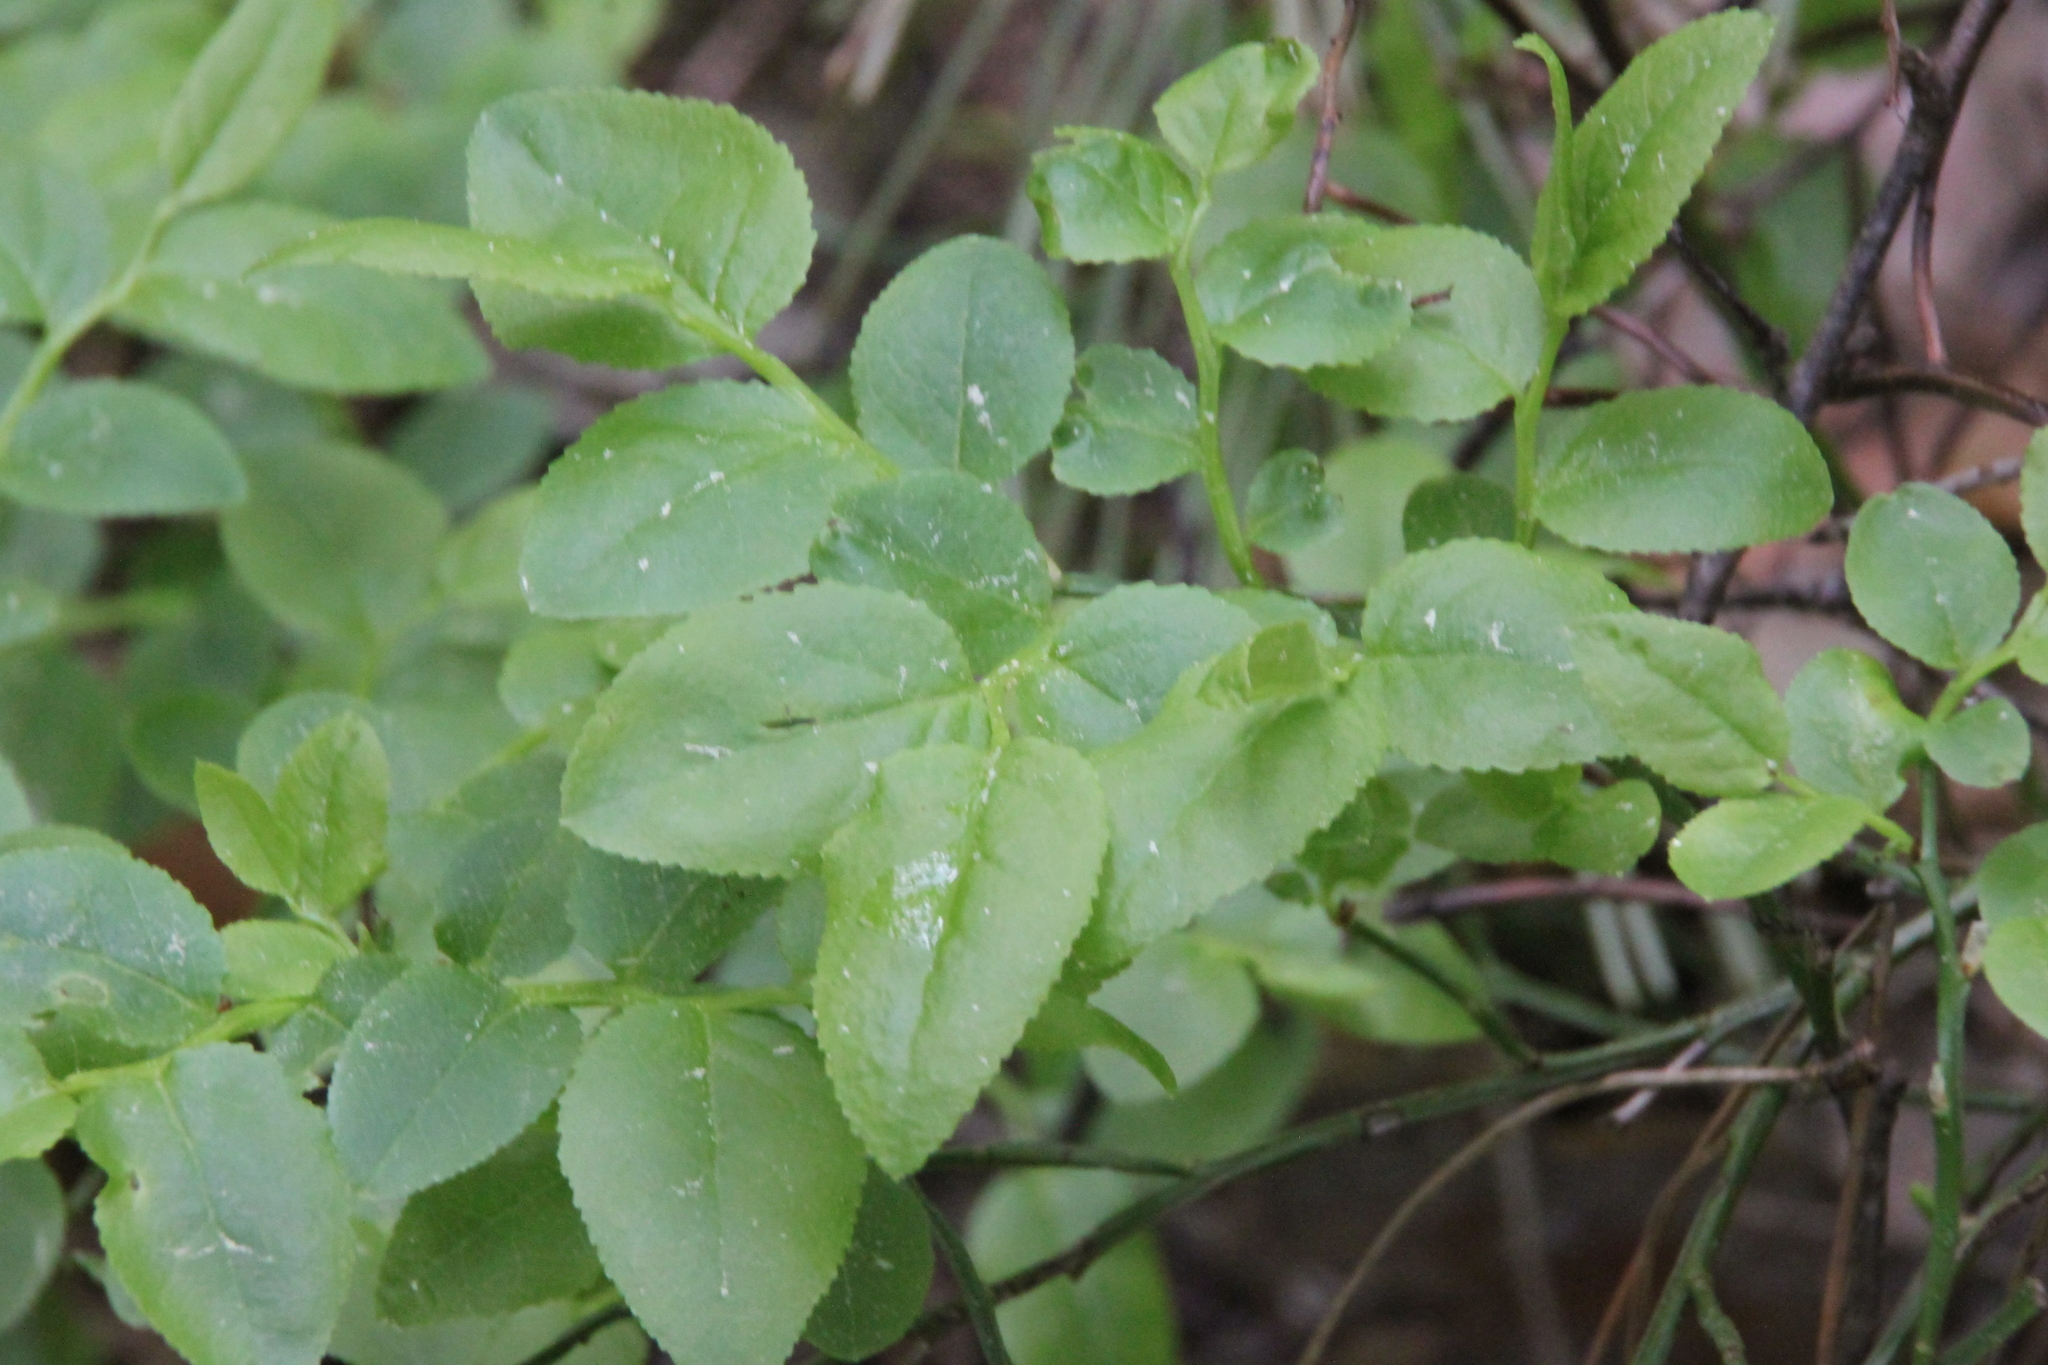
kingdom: Plantae
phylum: Tracheophyta
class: Magnoliopsida
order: Ericales
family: Ericaceae
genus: Vaccinium
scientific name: Vaccinium myrtillus
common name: Bilberry
